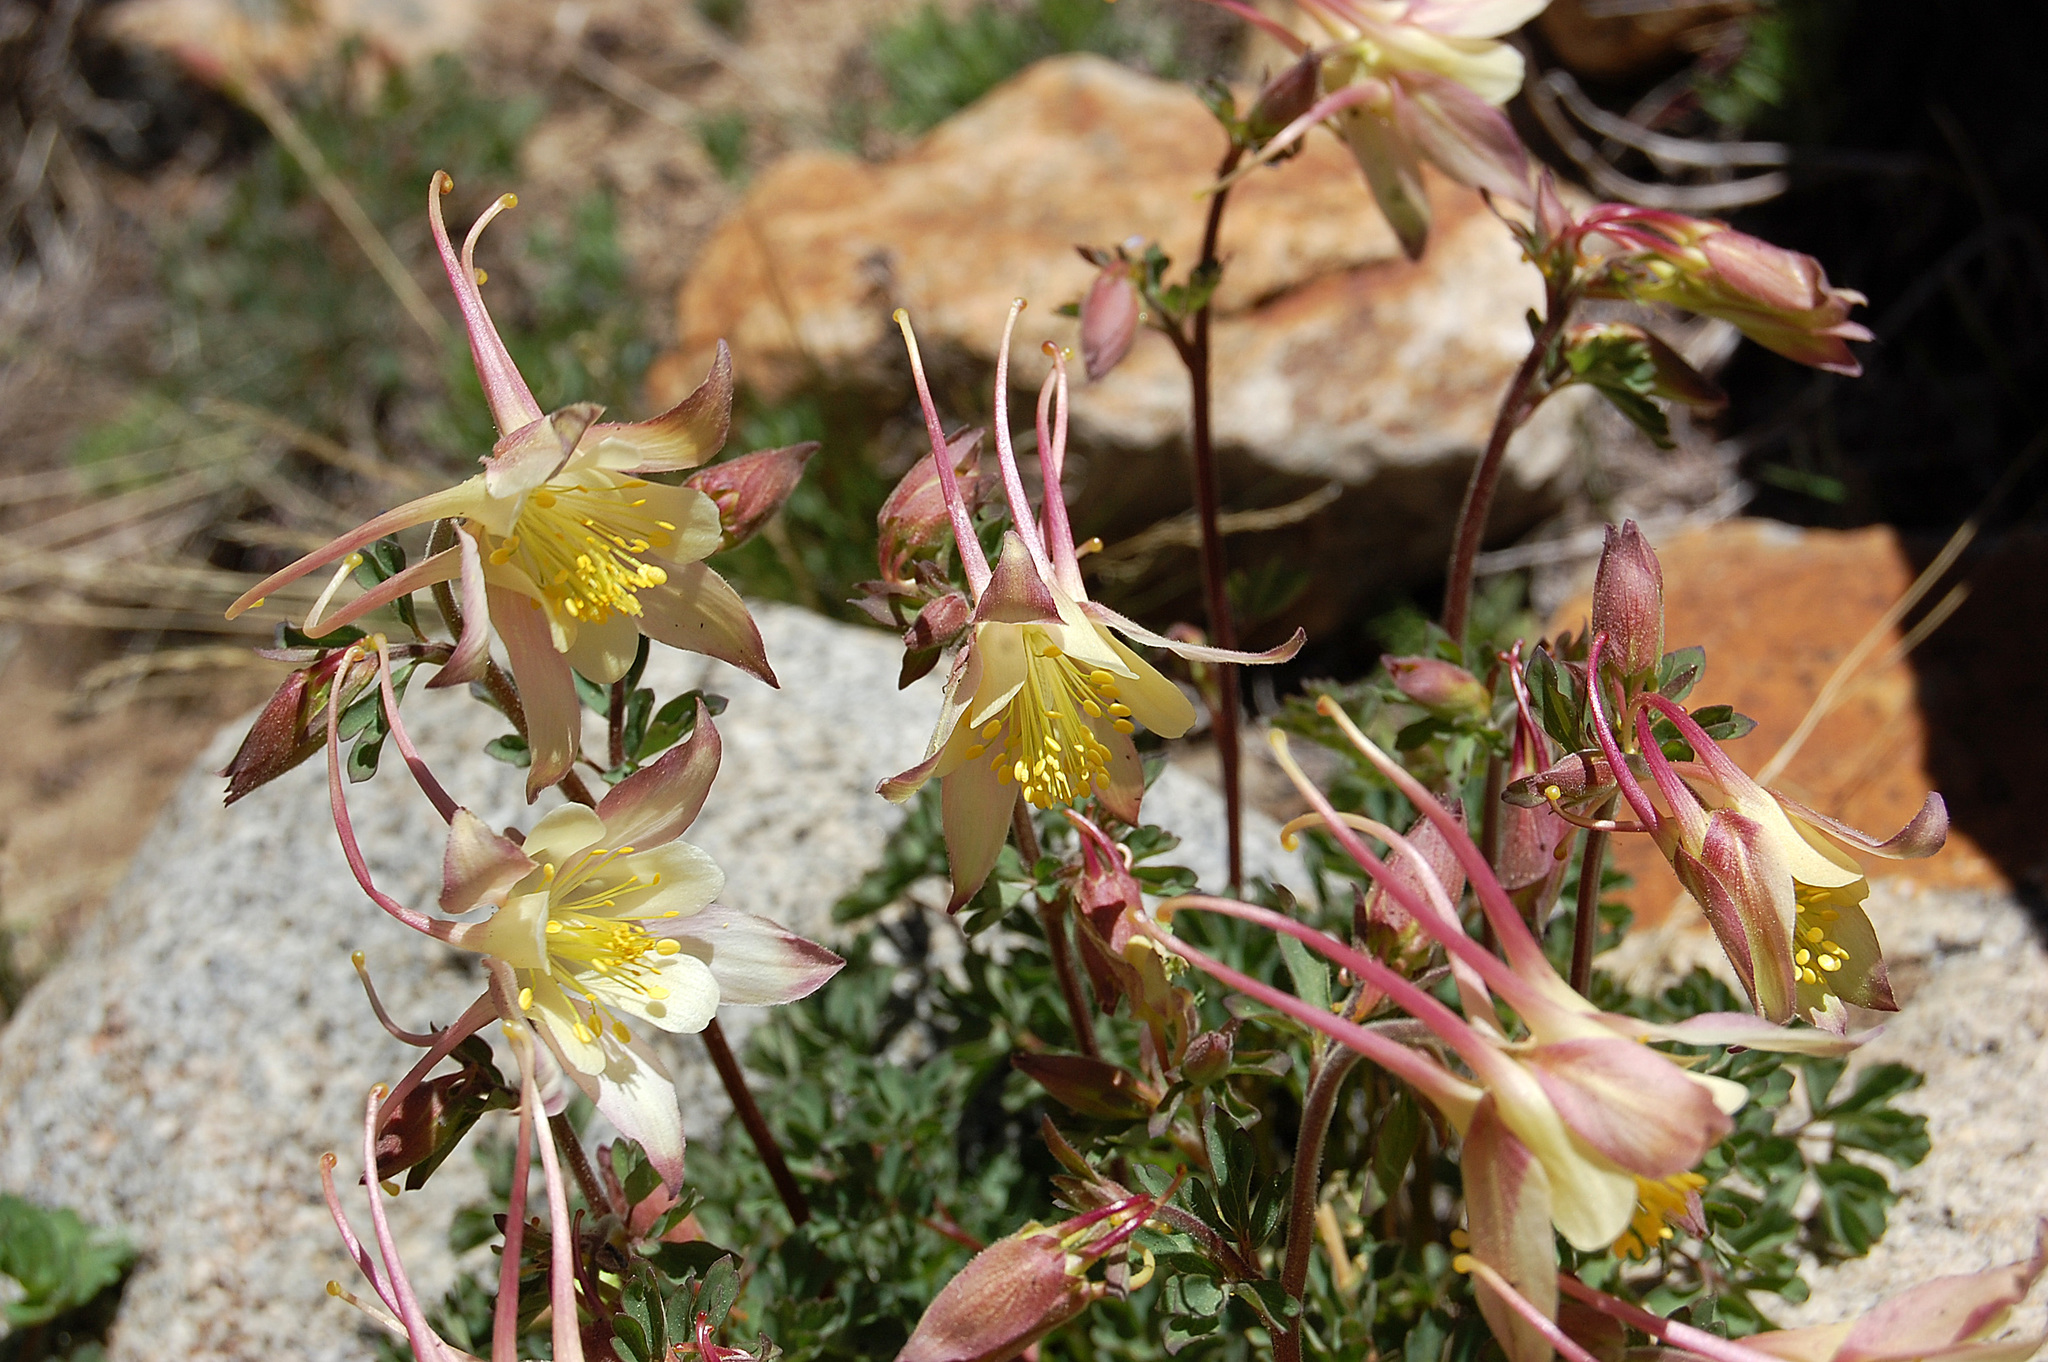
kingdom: Plantae
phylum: Tracheophyta
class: Magnoliopsida
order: Ranunculales
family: Ranunculaceae
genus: Aquilegia
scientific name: Aquilegia pubescens
